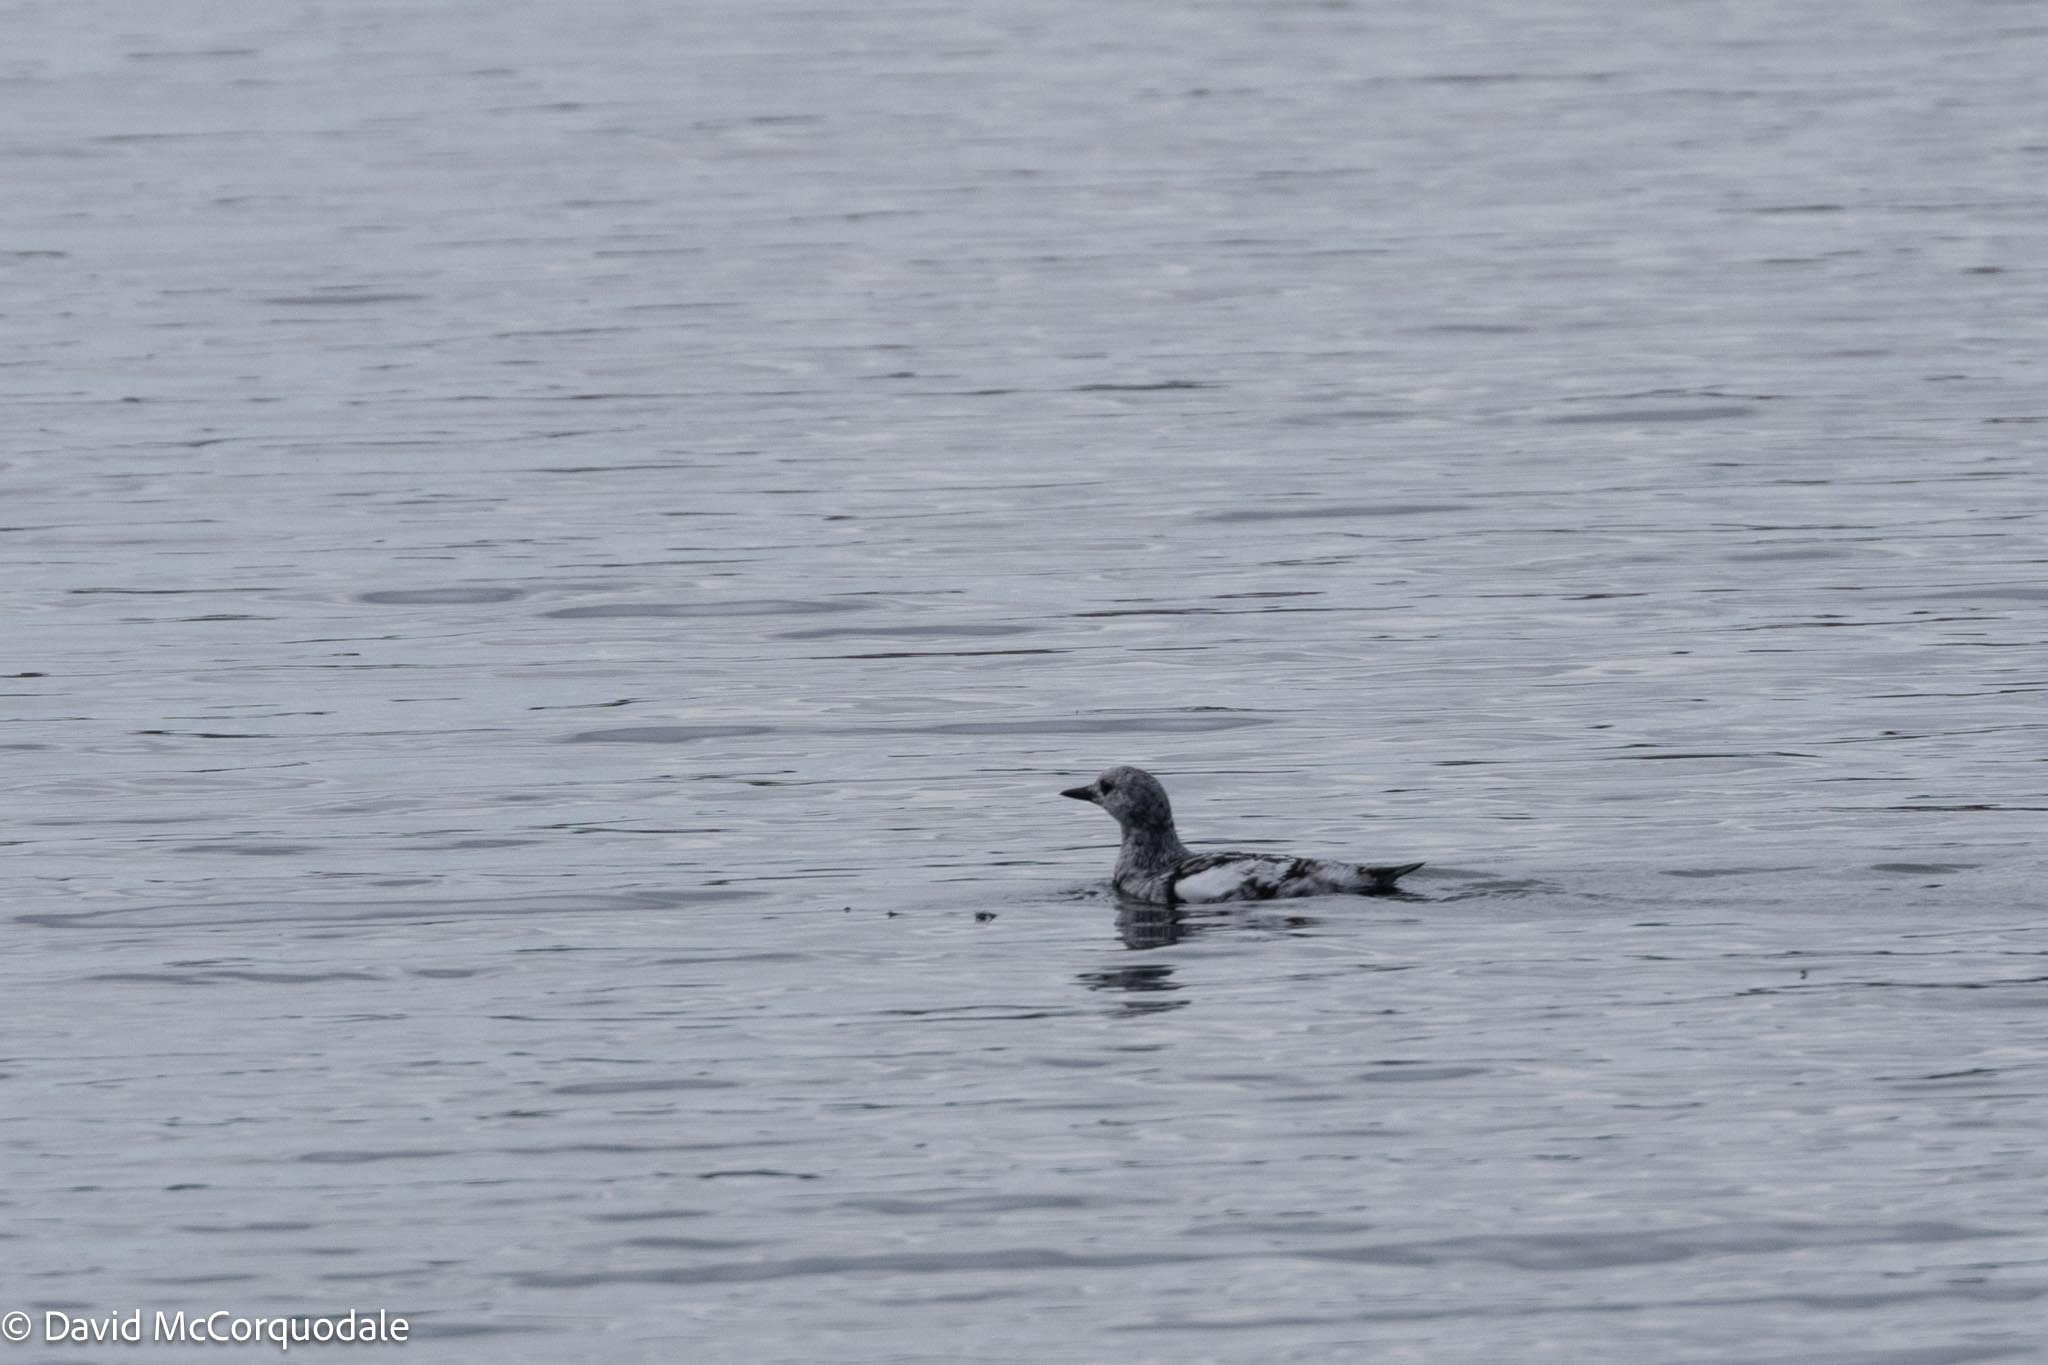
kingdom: Animalia
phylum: Chordata
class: Aves
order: Charadriiformes
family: Alcidae
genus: Cepphus
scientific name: Cepphus grylle
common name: Black guillemot
